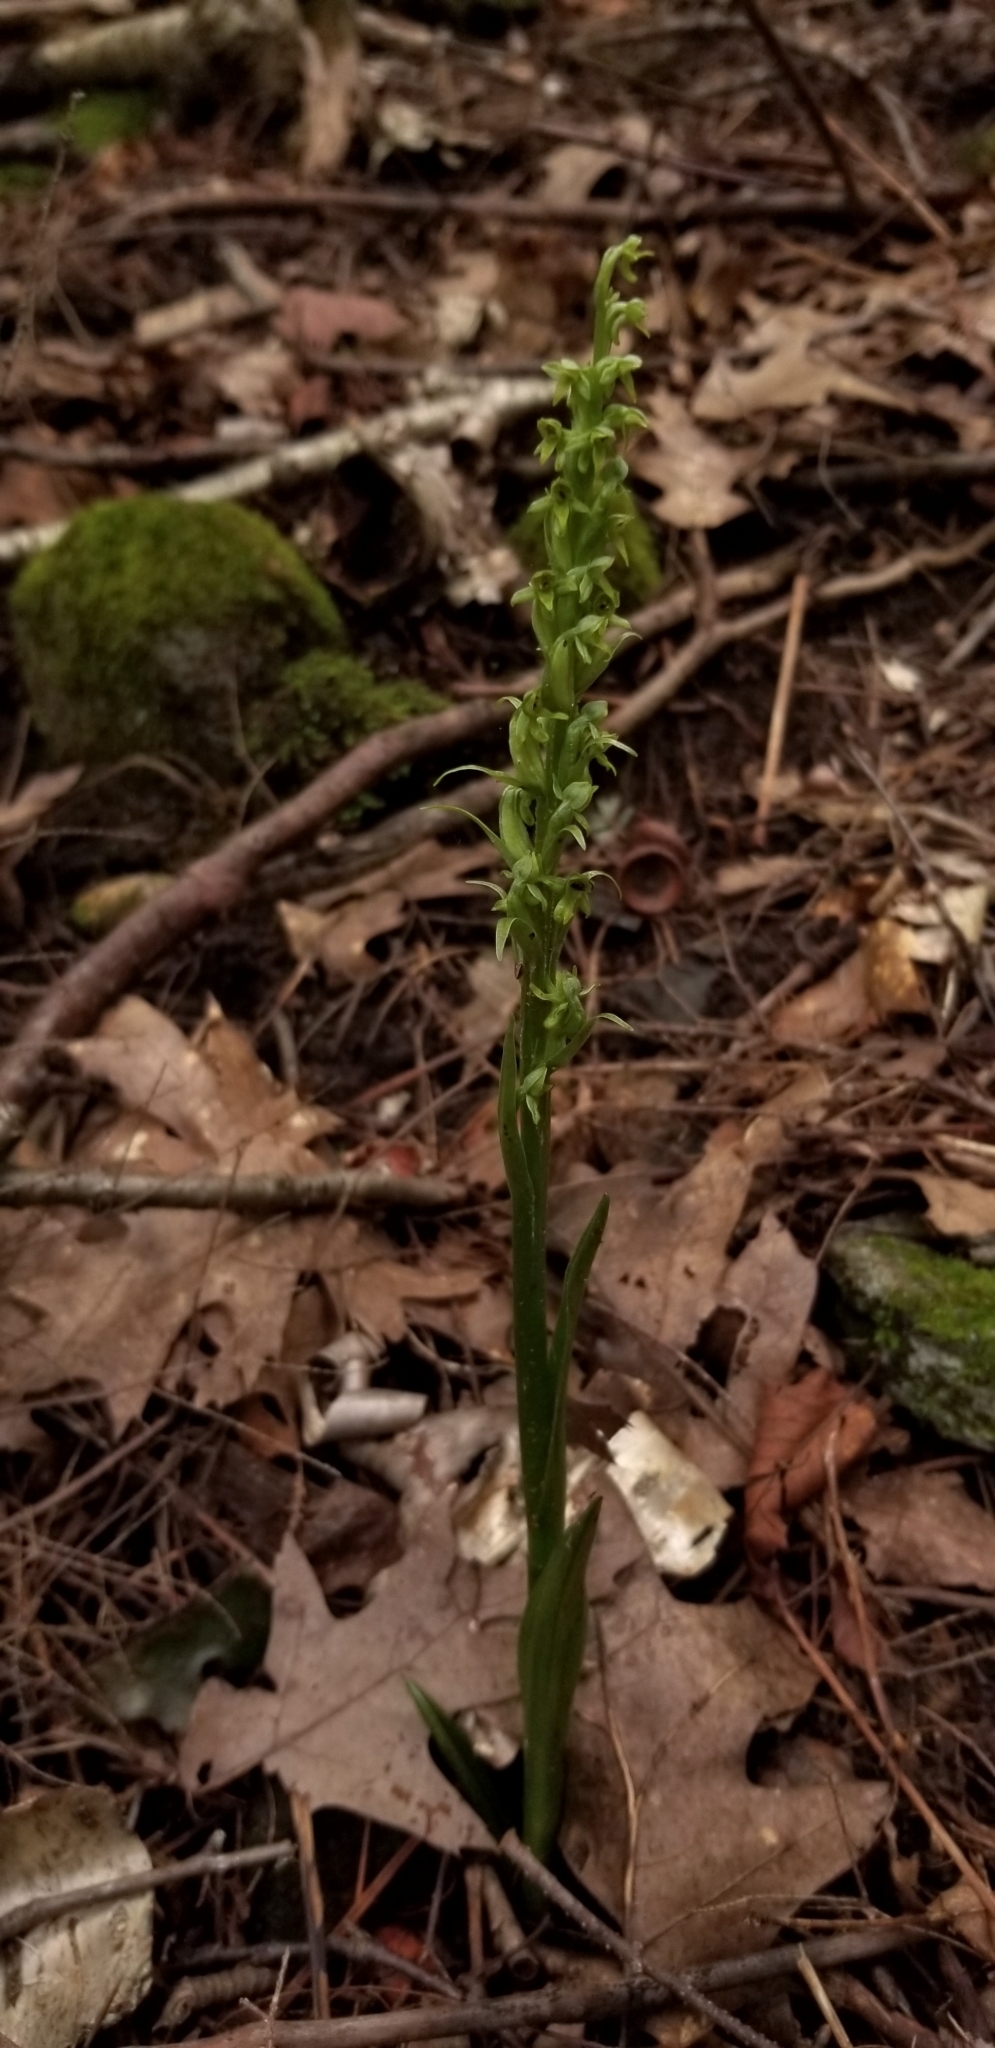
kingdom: Plantae
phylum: Tracheophyta
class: Liliopsida
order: Asparagales
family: Orchidaceae
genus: Platanthera
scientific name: Platanthera aquilonis
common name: Northern green orchid
